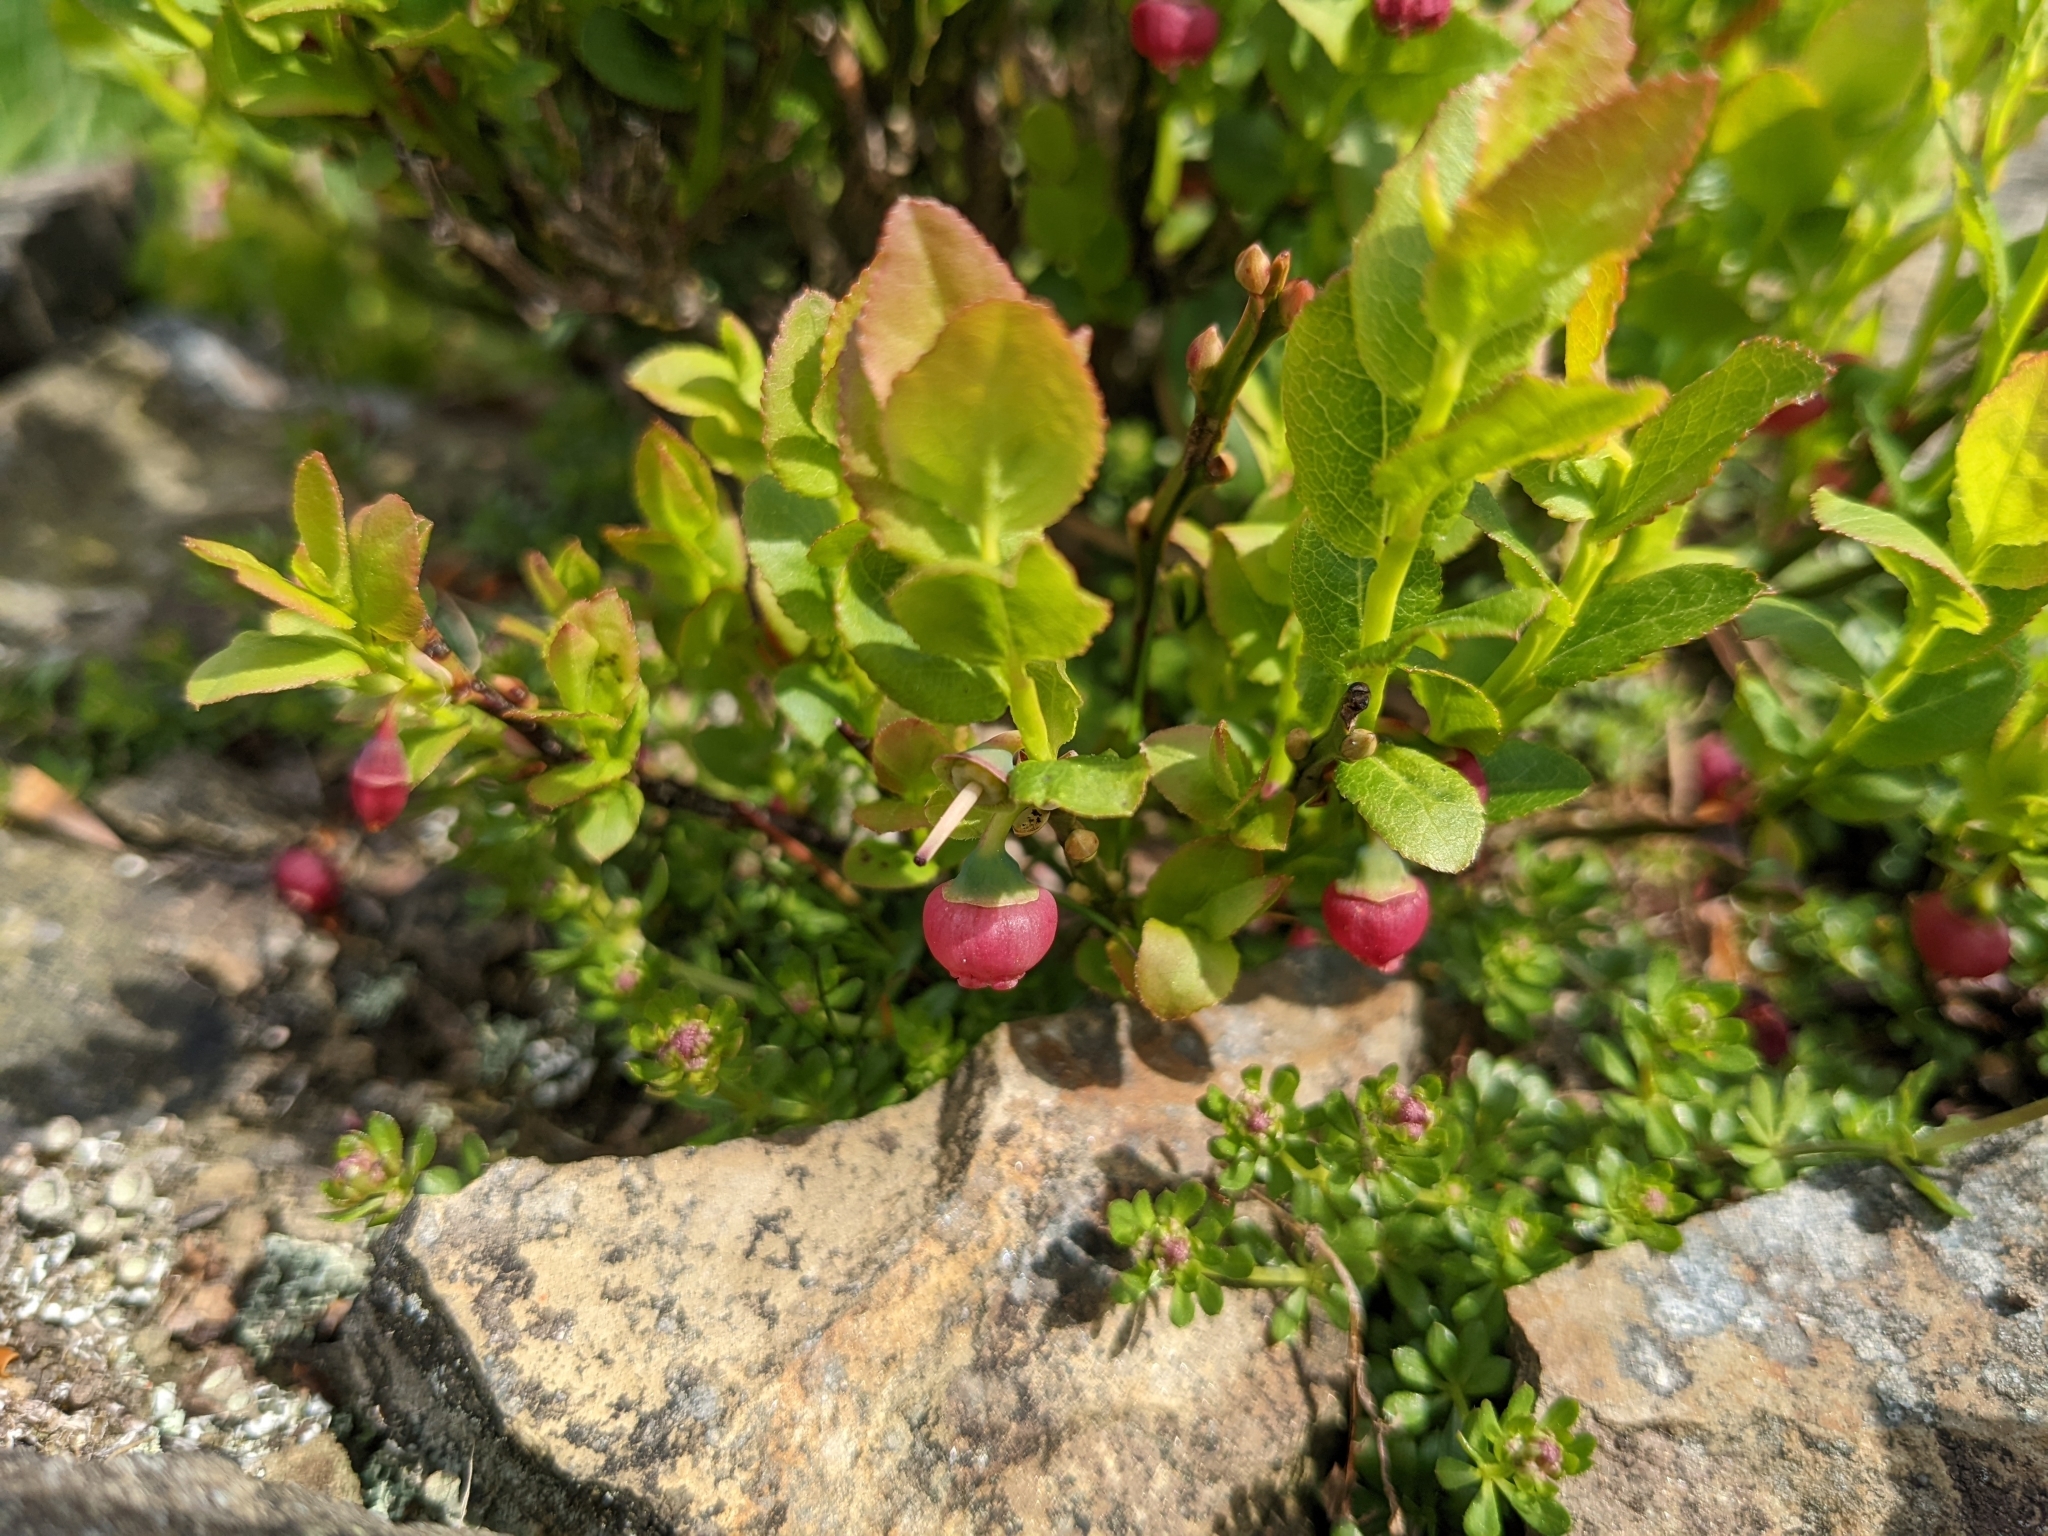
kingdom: Plantae
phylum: Tracheophyta
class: Magnoliopsida
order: Ericales
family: Ericaceae
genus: Vaccinium
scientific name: Vaccinium myrtillus
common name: Bilberry
